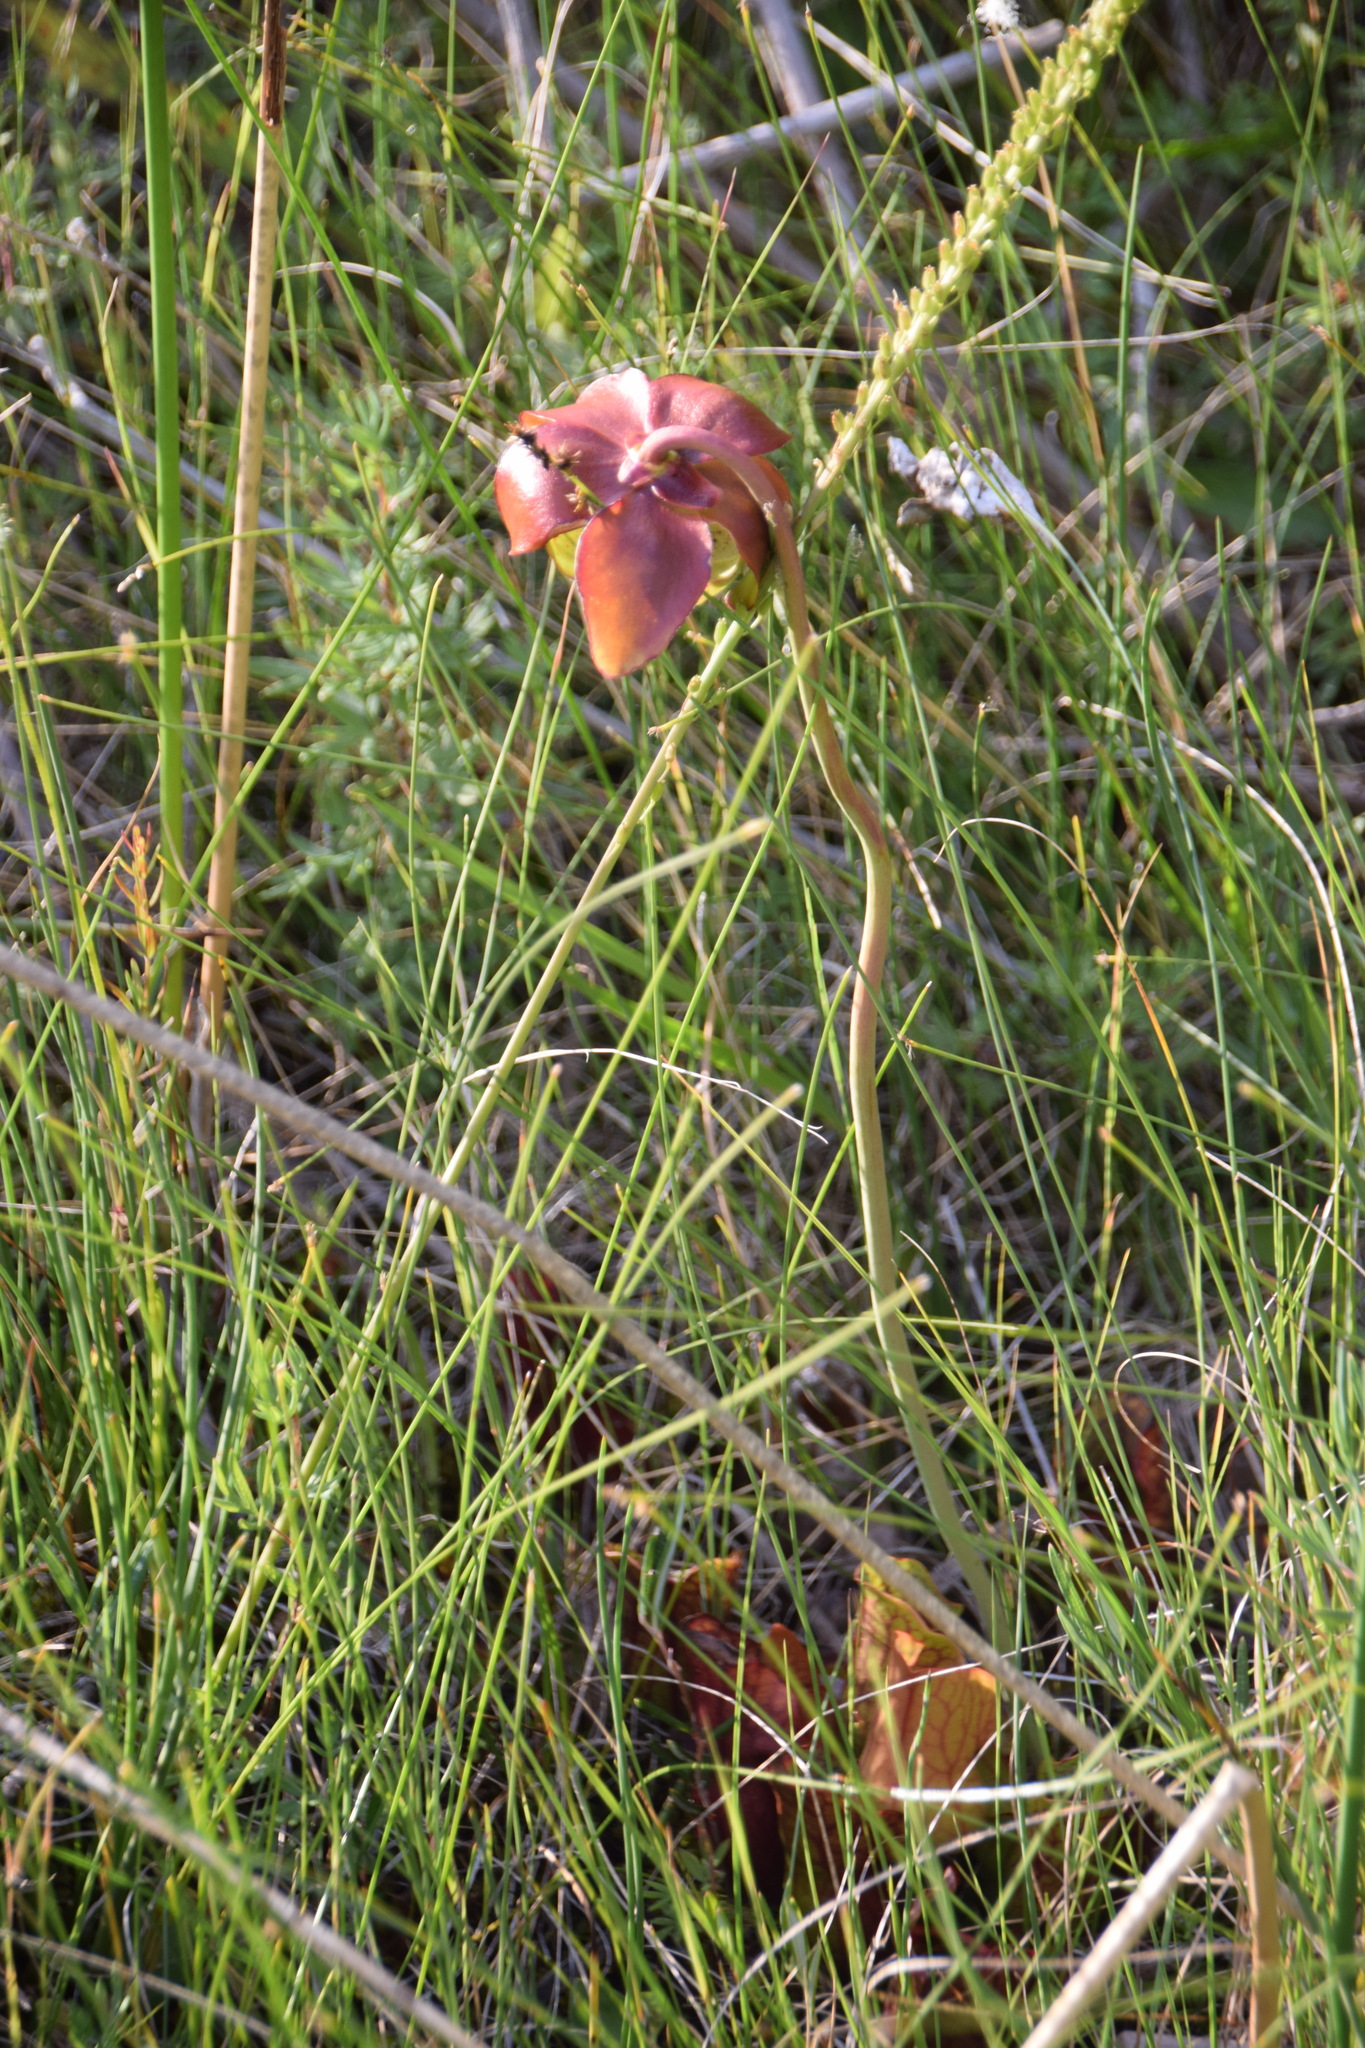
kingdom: Plantae
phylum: Tracheophyta
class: Magnoliopsida
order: Ericales
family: Sarraceniaceae
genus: Sarracenia
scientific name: Sarracenia purpurea
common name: Pitcherplant
